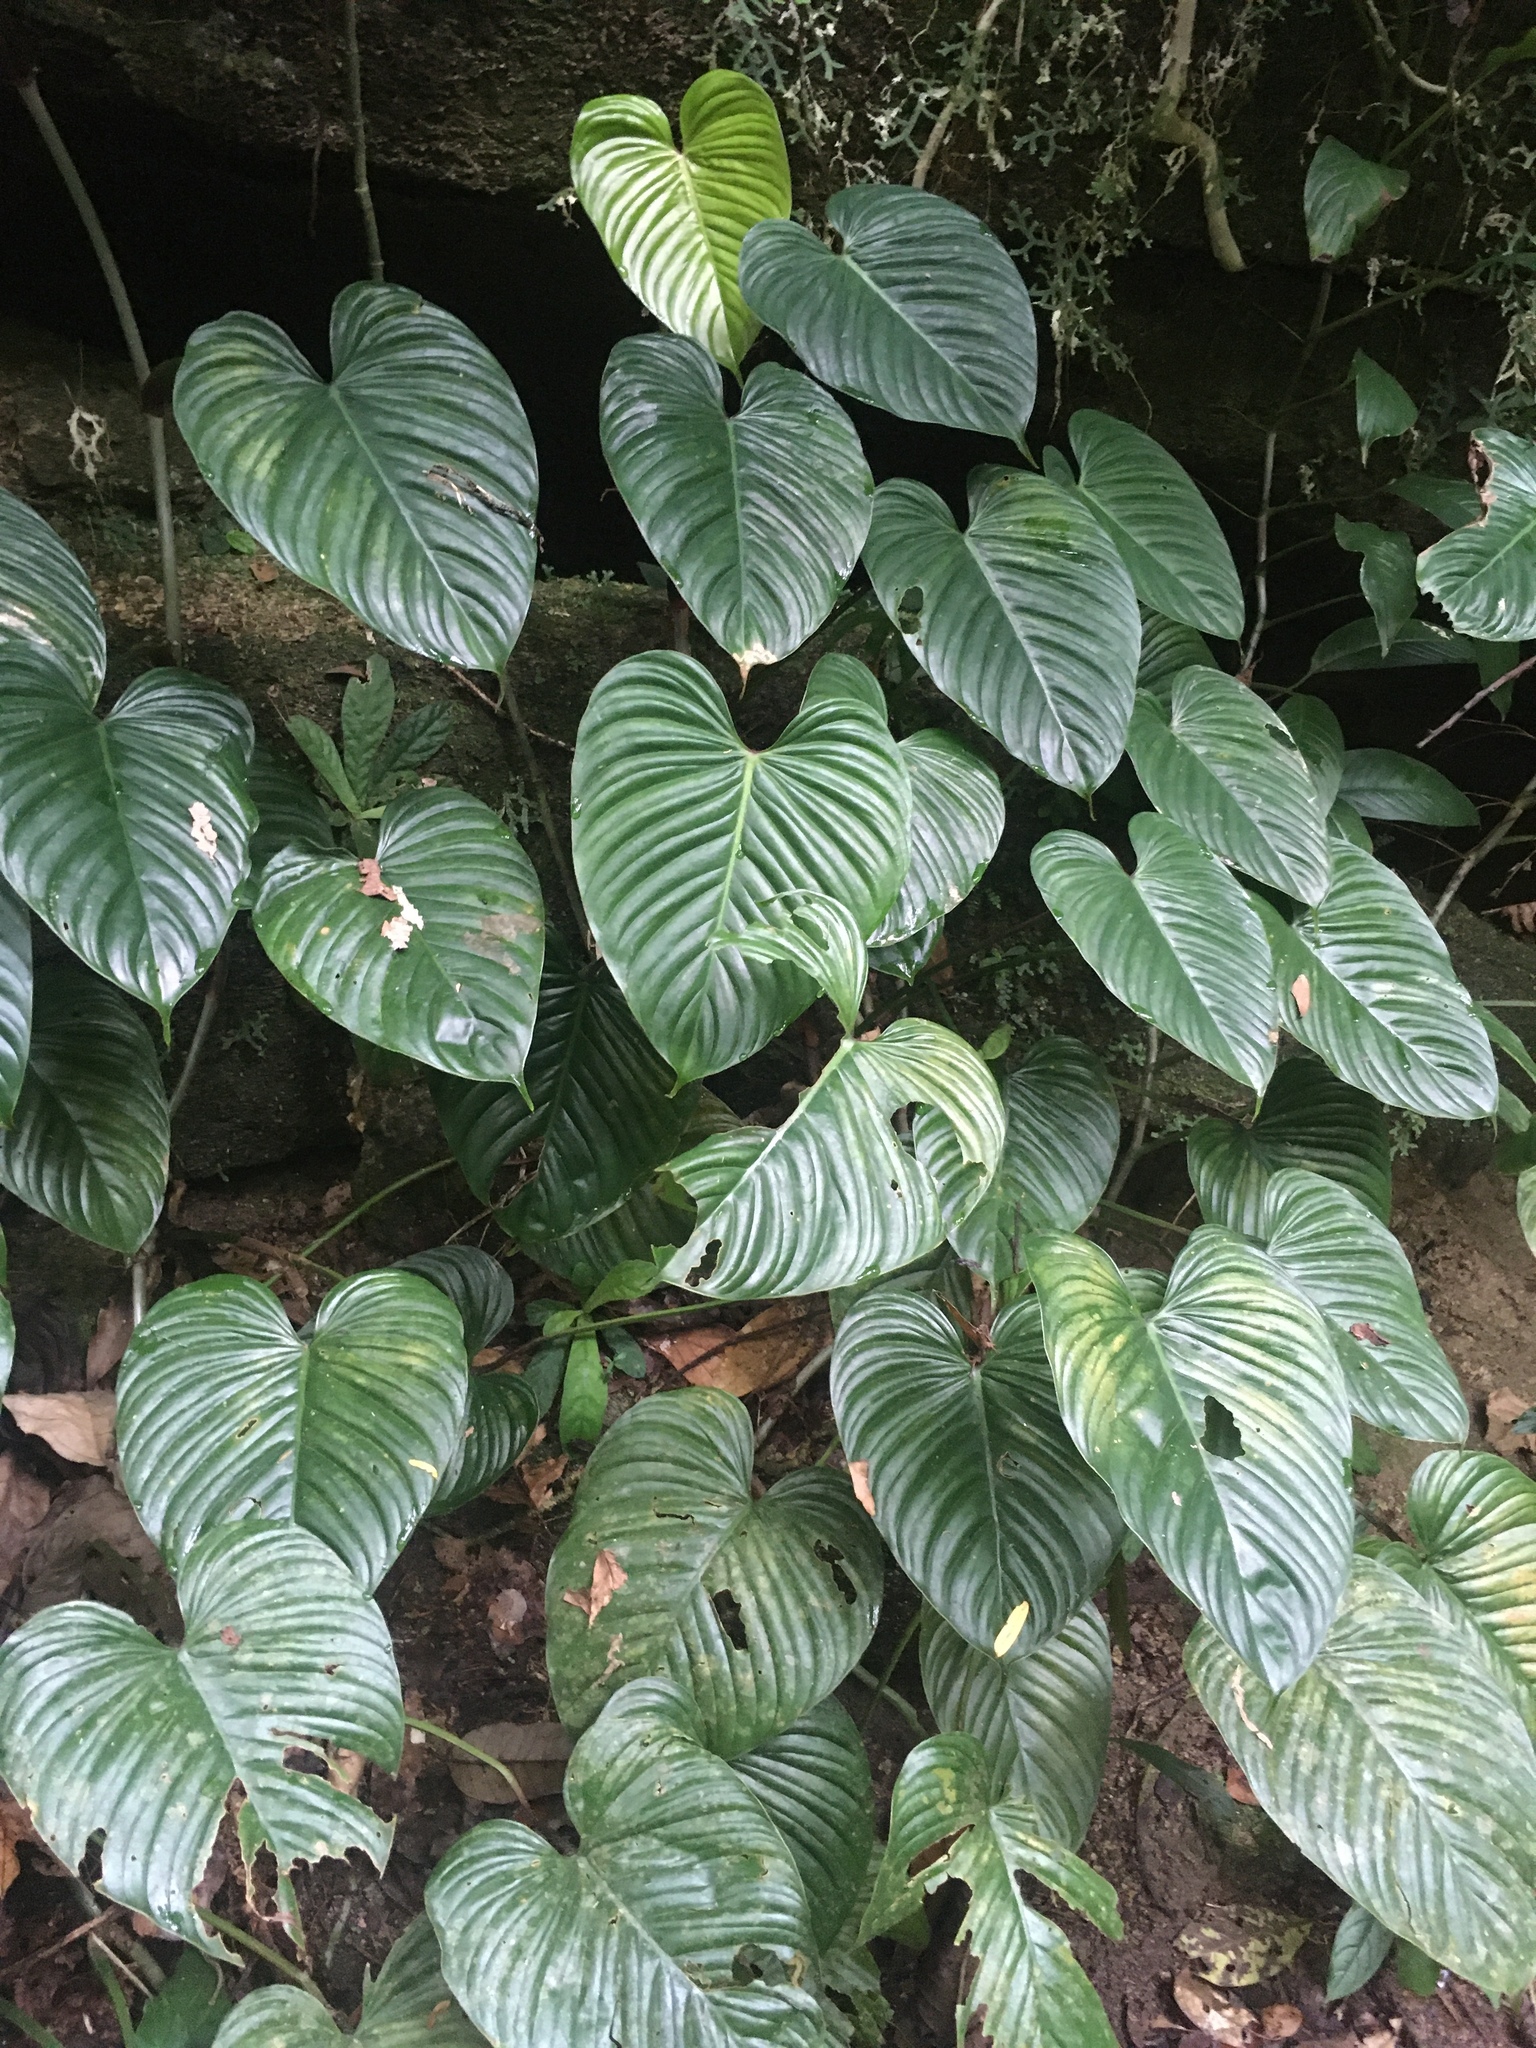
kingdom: Plantae
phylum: Tracheophyta
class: Liliopsida
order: Alismatales
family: Araceae
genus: Philodendron
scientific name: Philodendron ornatum
